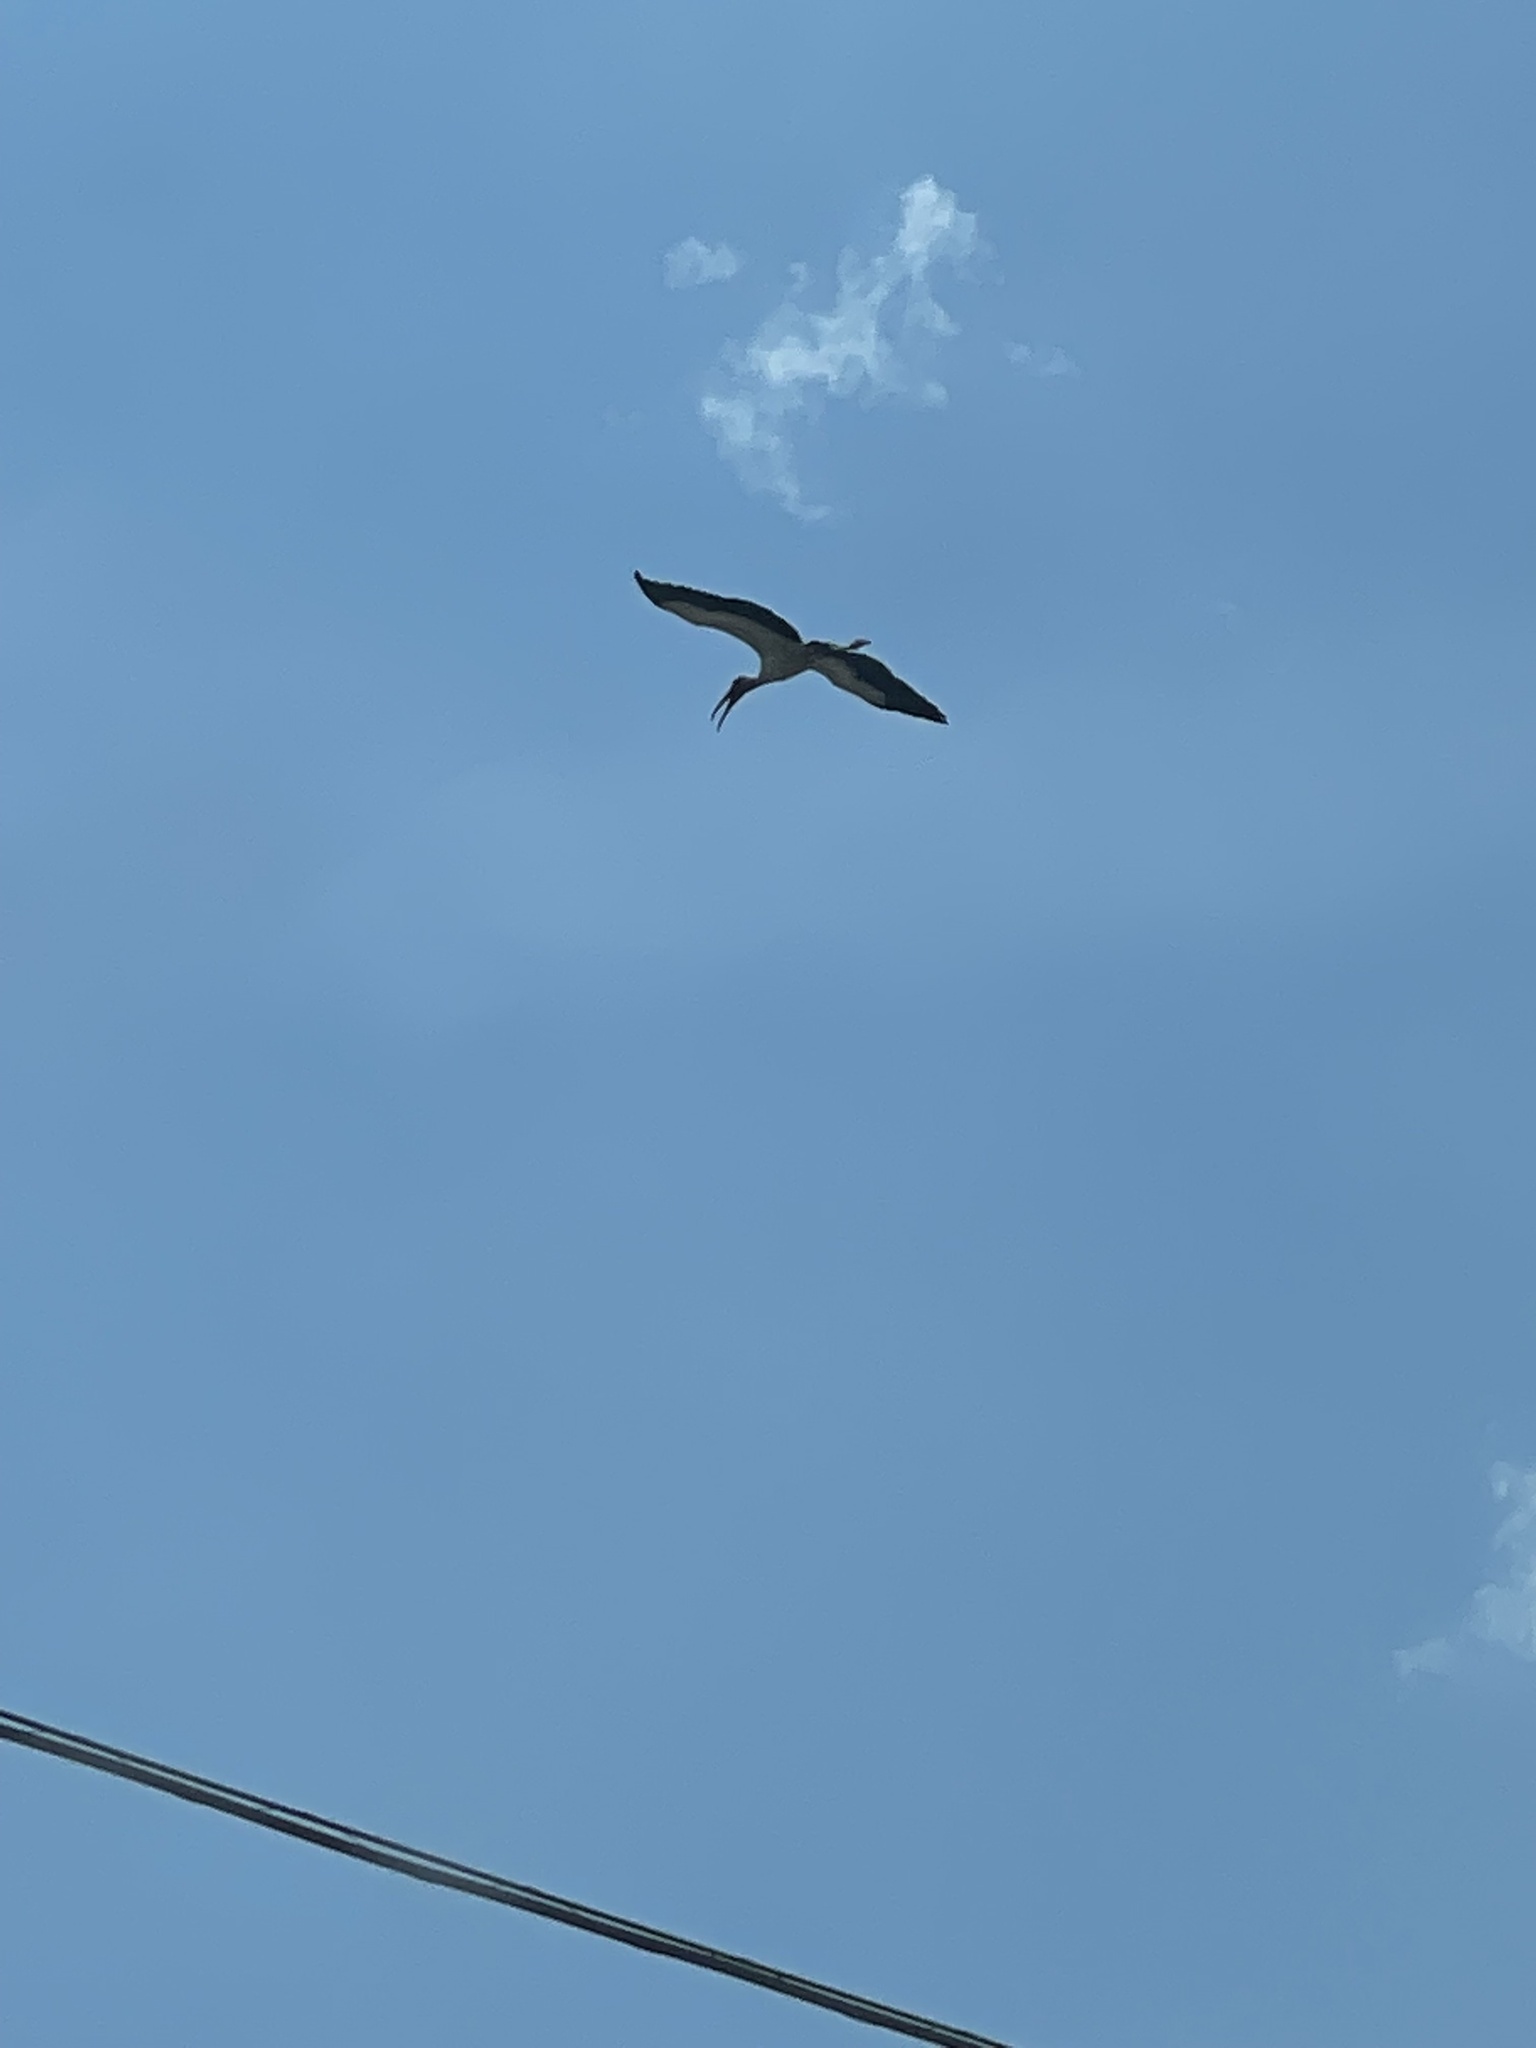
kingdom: Animalia
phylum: Chordata
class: Aves
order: Ciconiiformes
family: Ciconiidae
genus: Mycteria
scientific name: Mycteria americana
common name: Wood stork
